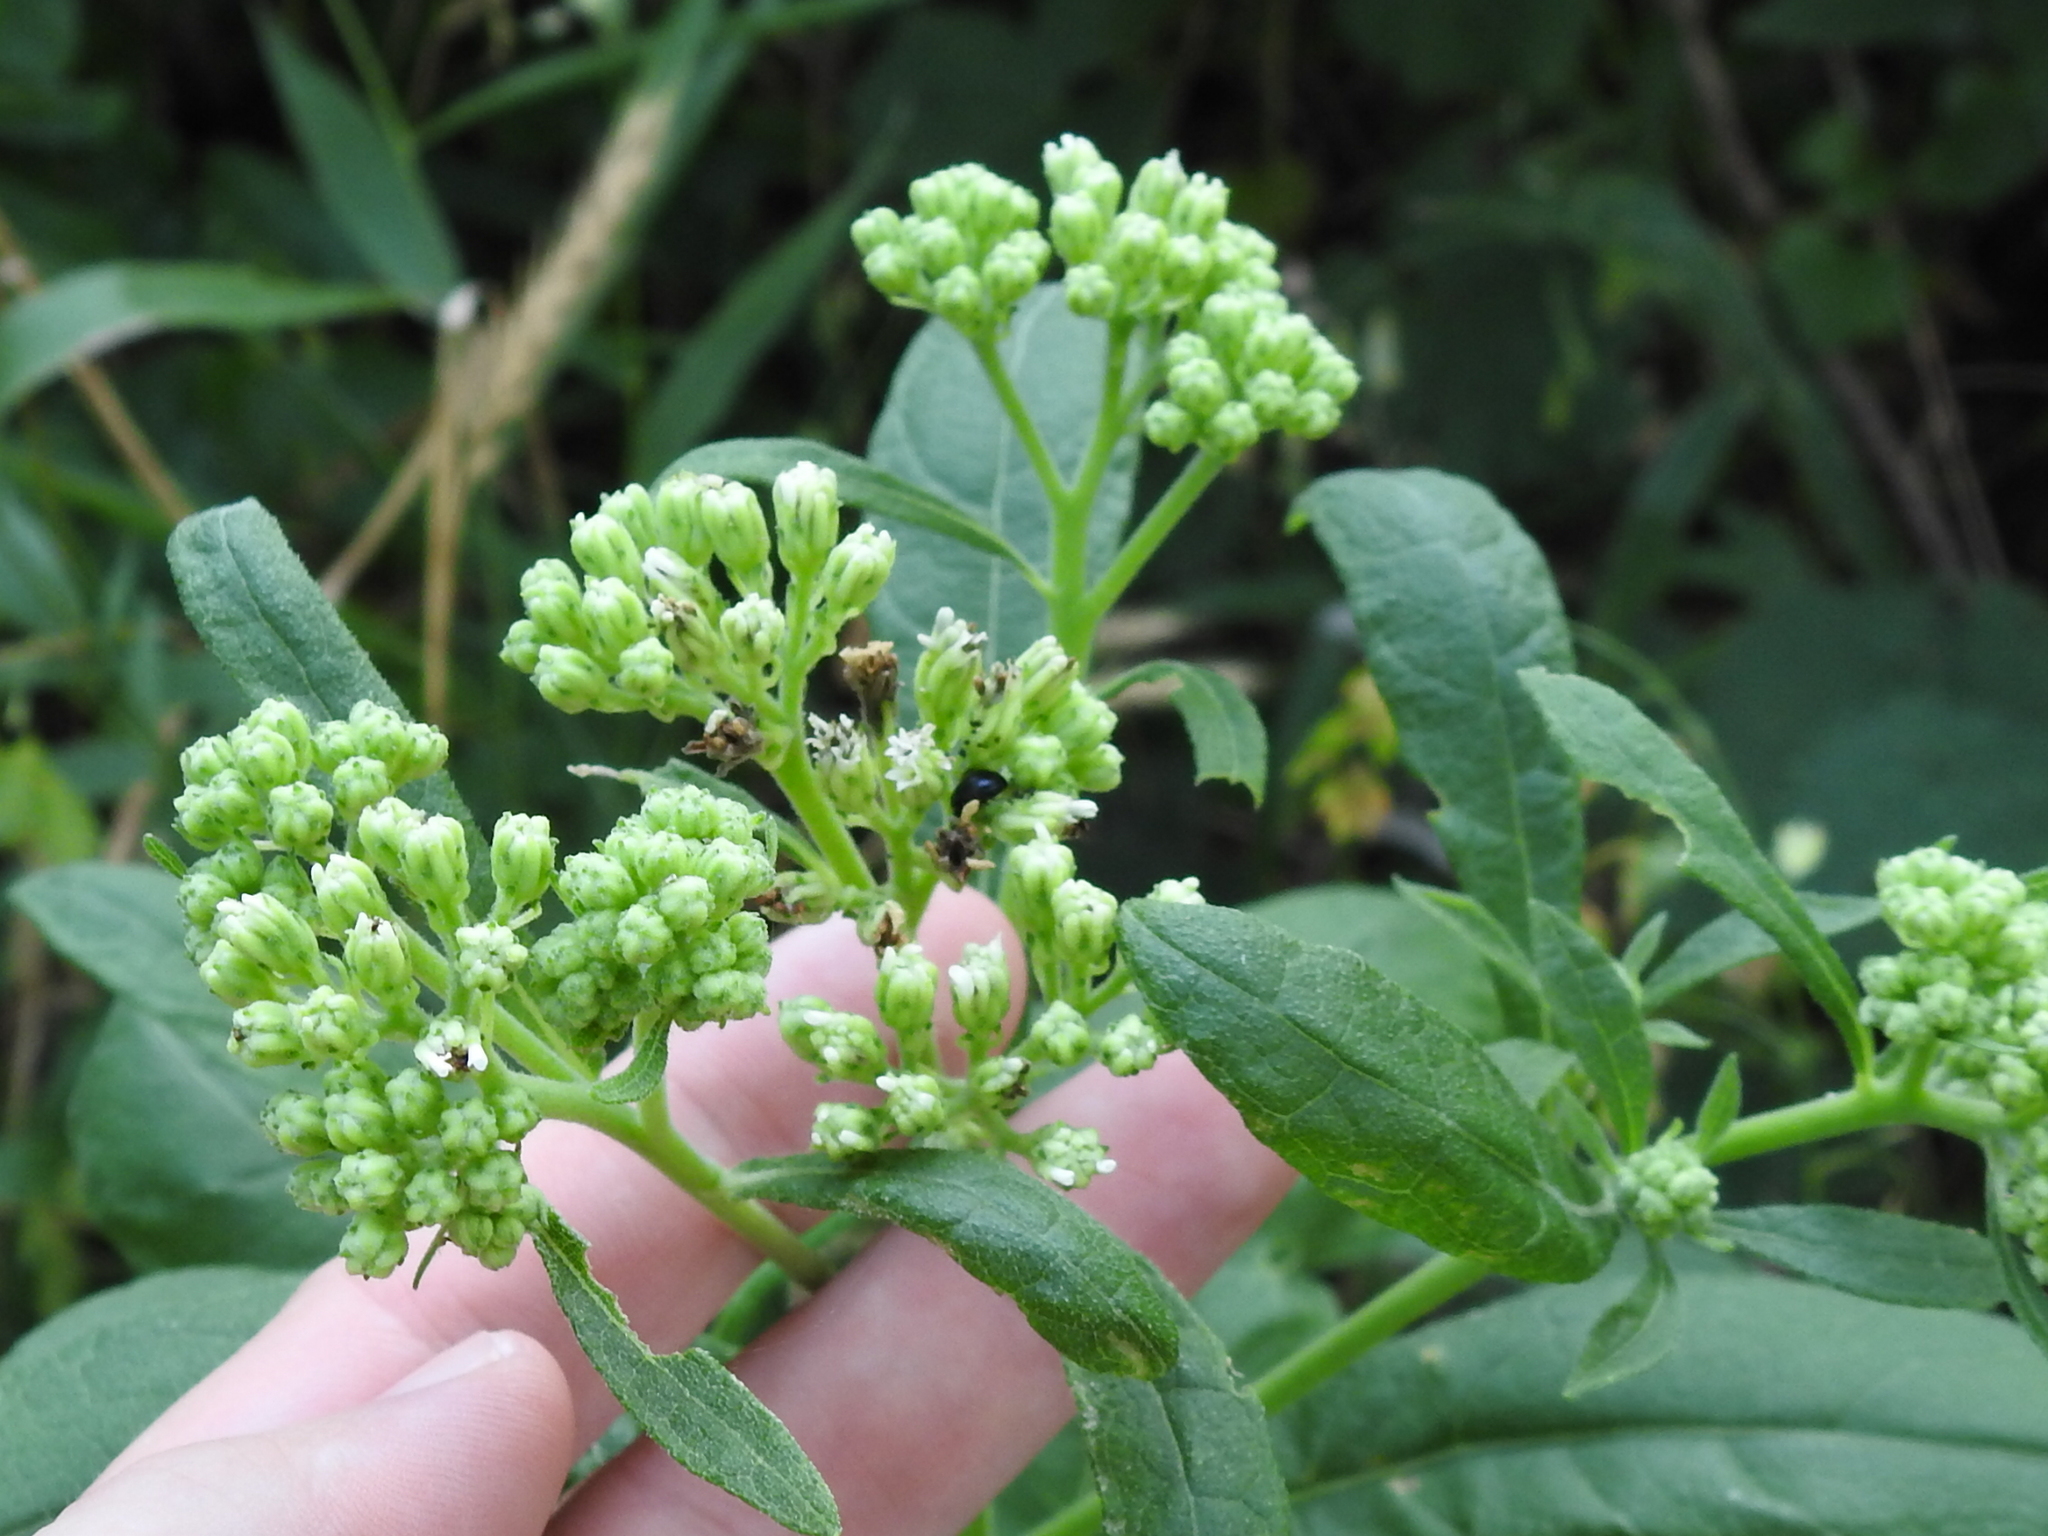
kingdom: Plantae
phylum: Tracheophyta
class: Magnoliopsida
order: Asterales
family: Asteraceae
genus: Verbesina
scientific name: Verbesina virginica
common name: Frostweed
